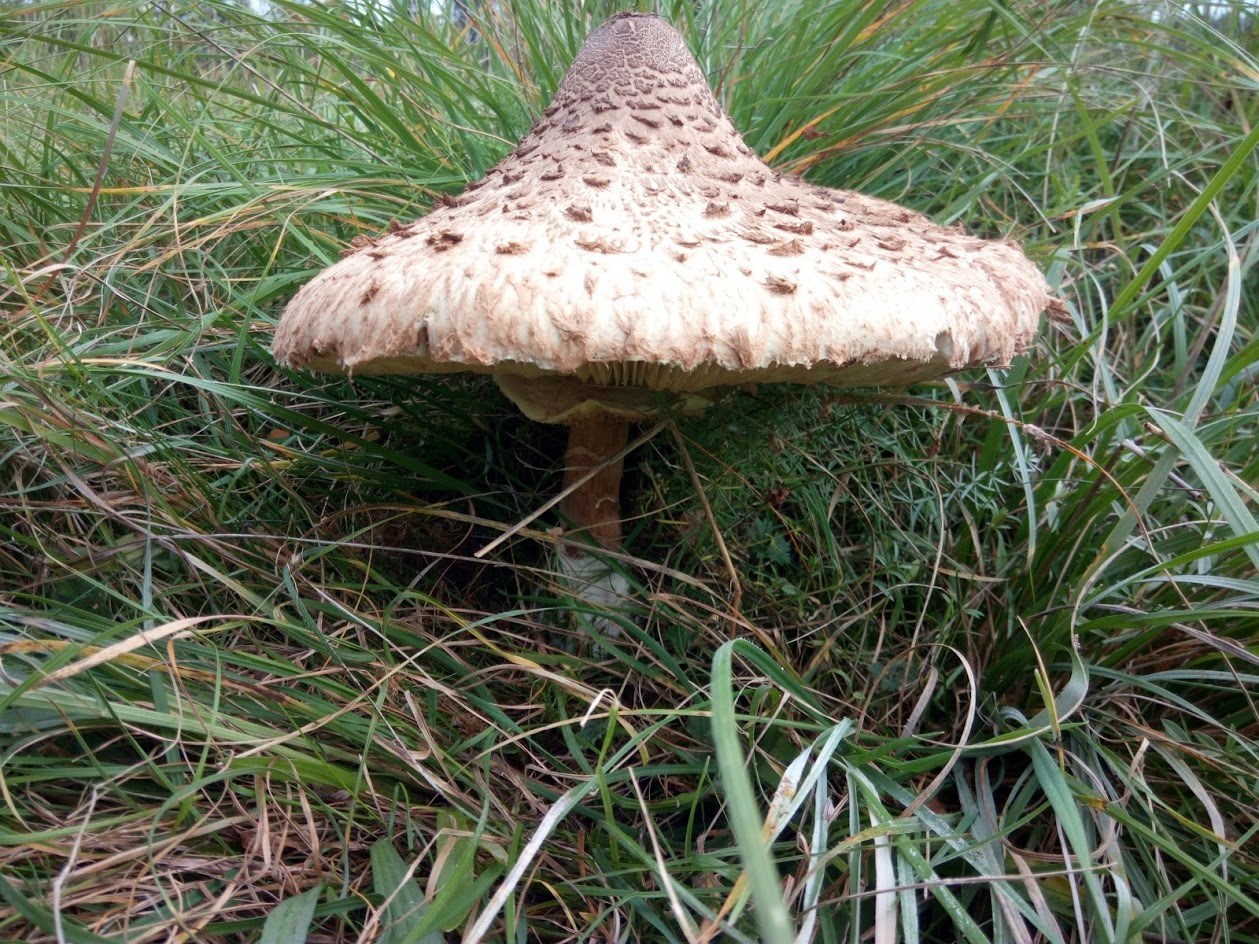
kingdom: Fungi
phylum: Basidiomycota
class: Agaricomycetes
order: Agaricales
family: Agaricaceae
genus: Macrolepiota
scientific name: Macrolepiota procera
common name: Parasol
